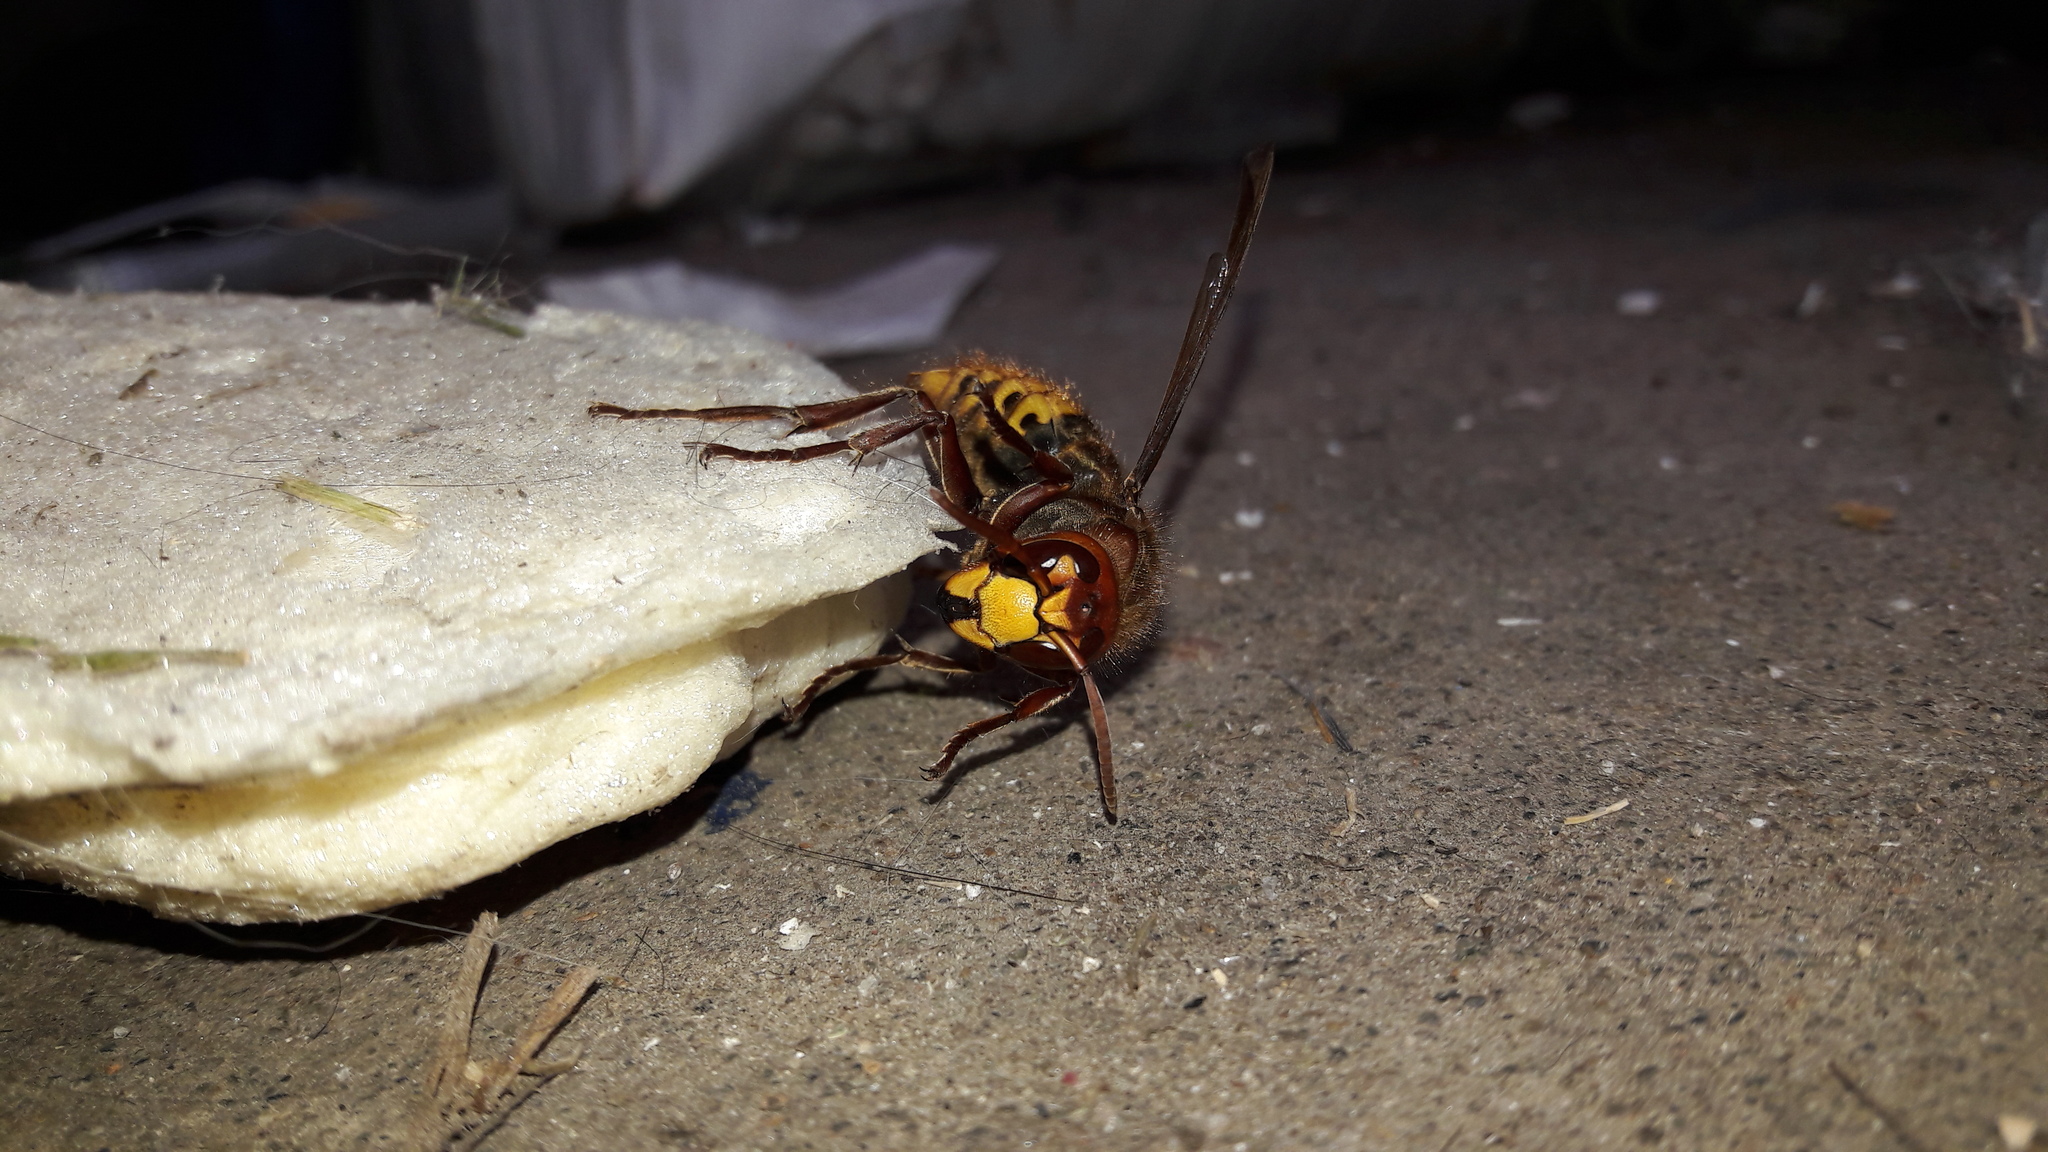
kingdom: Animalia
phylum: Arthropoda
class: Insecta
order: Hymenoptera
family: Vespidae
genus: Vespa
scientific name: Vespa crabro
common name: Hornet
